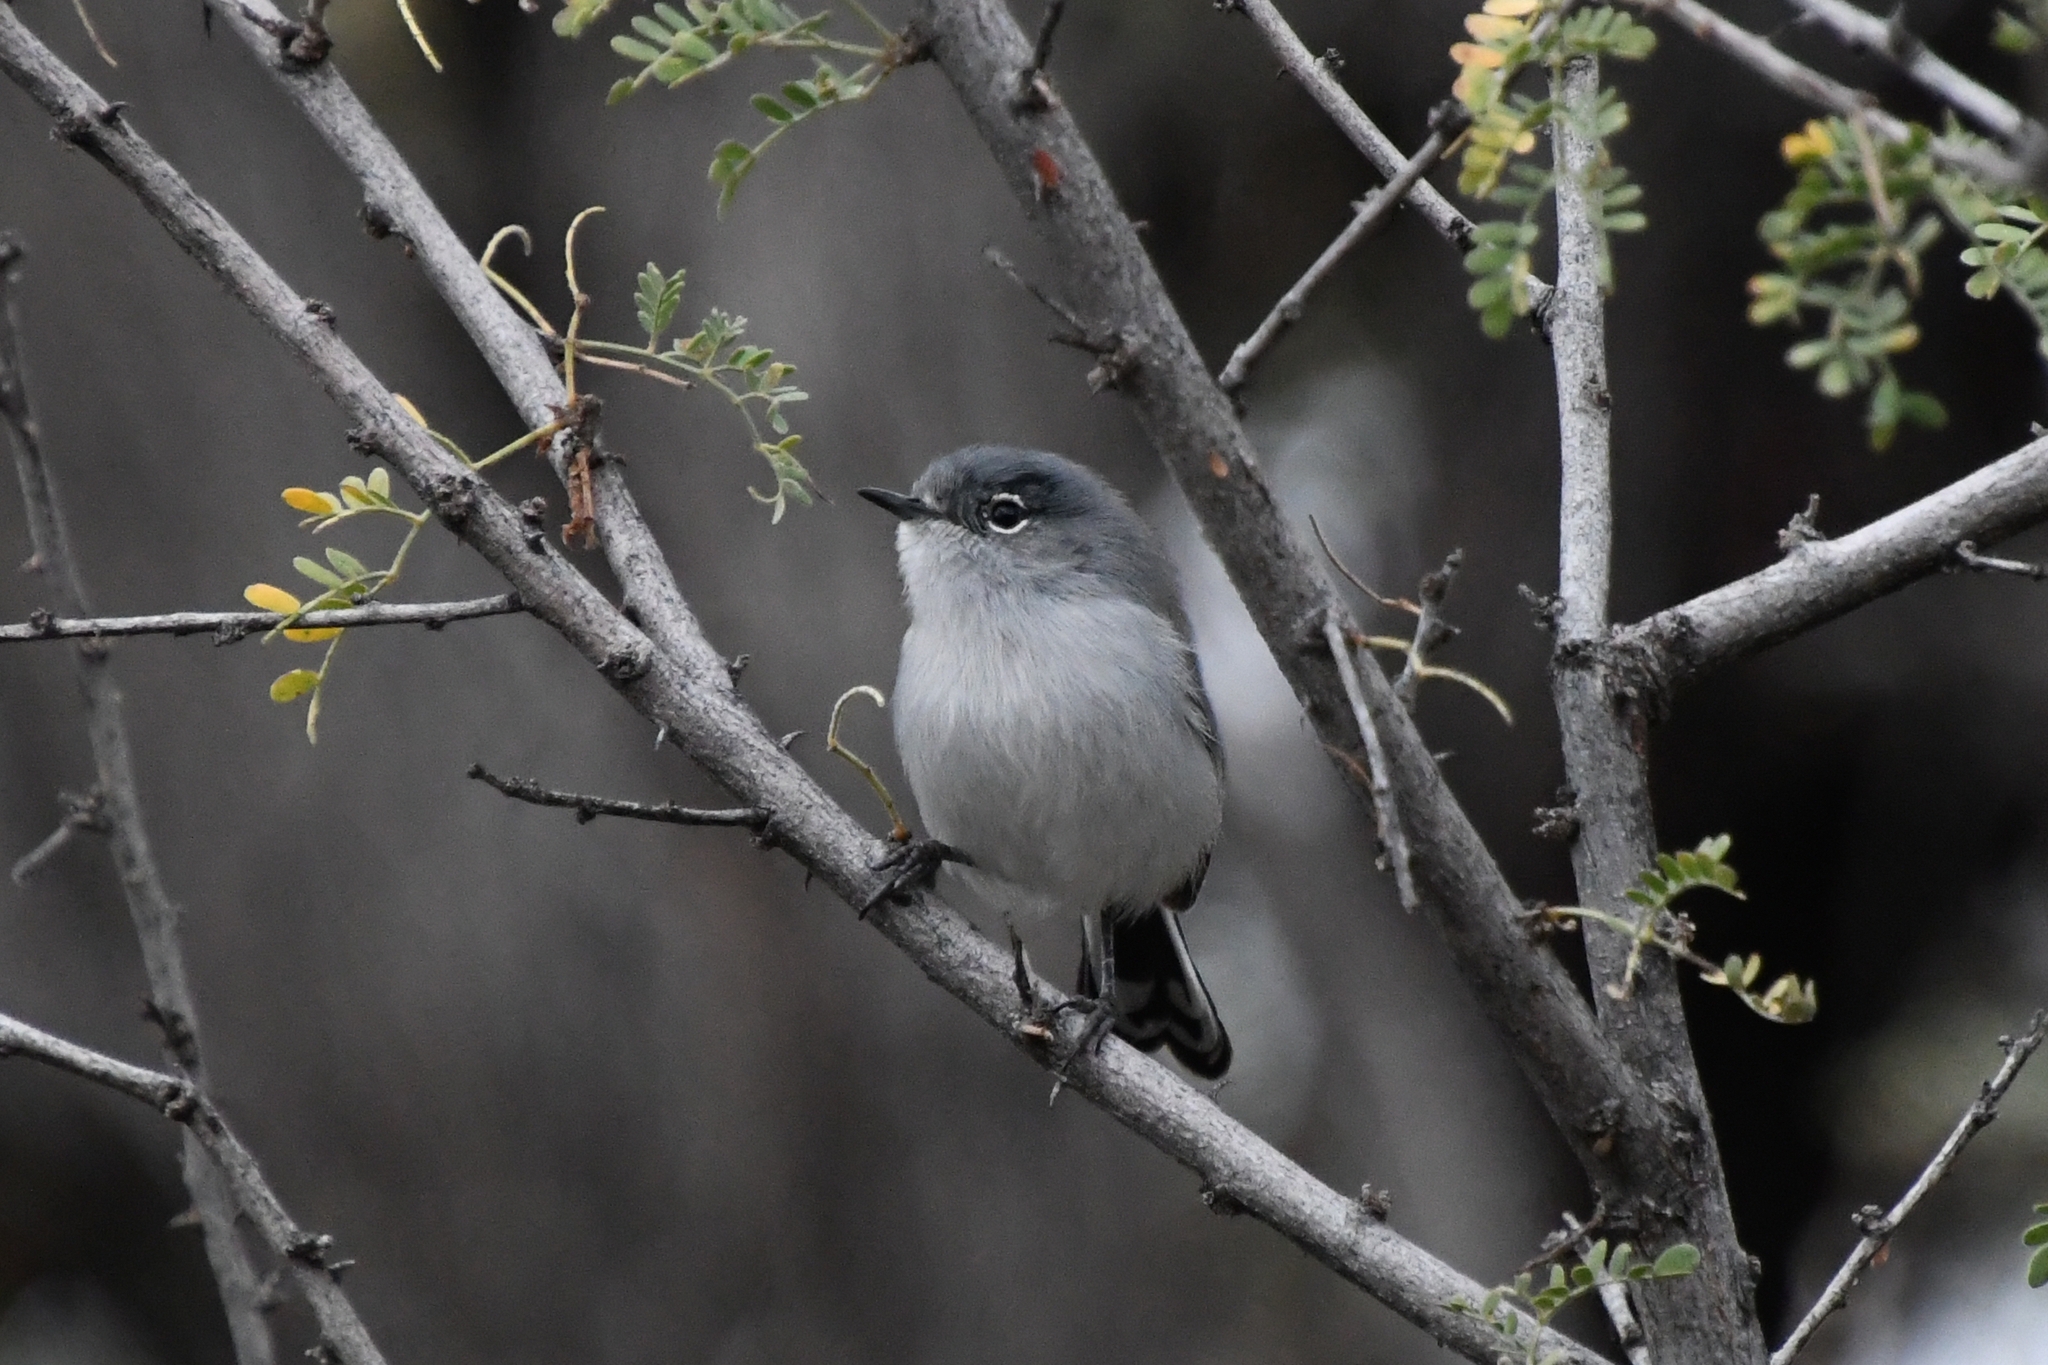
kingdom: Animalia
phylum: Chordata
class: Aves
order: Passeriformes
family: Polioptilidae
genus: Polioptila
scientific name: Polioptila melanura
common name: Black-tailed gnatcatcher
